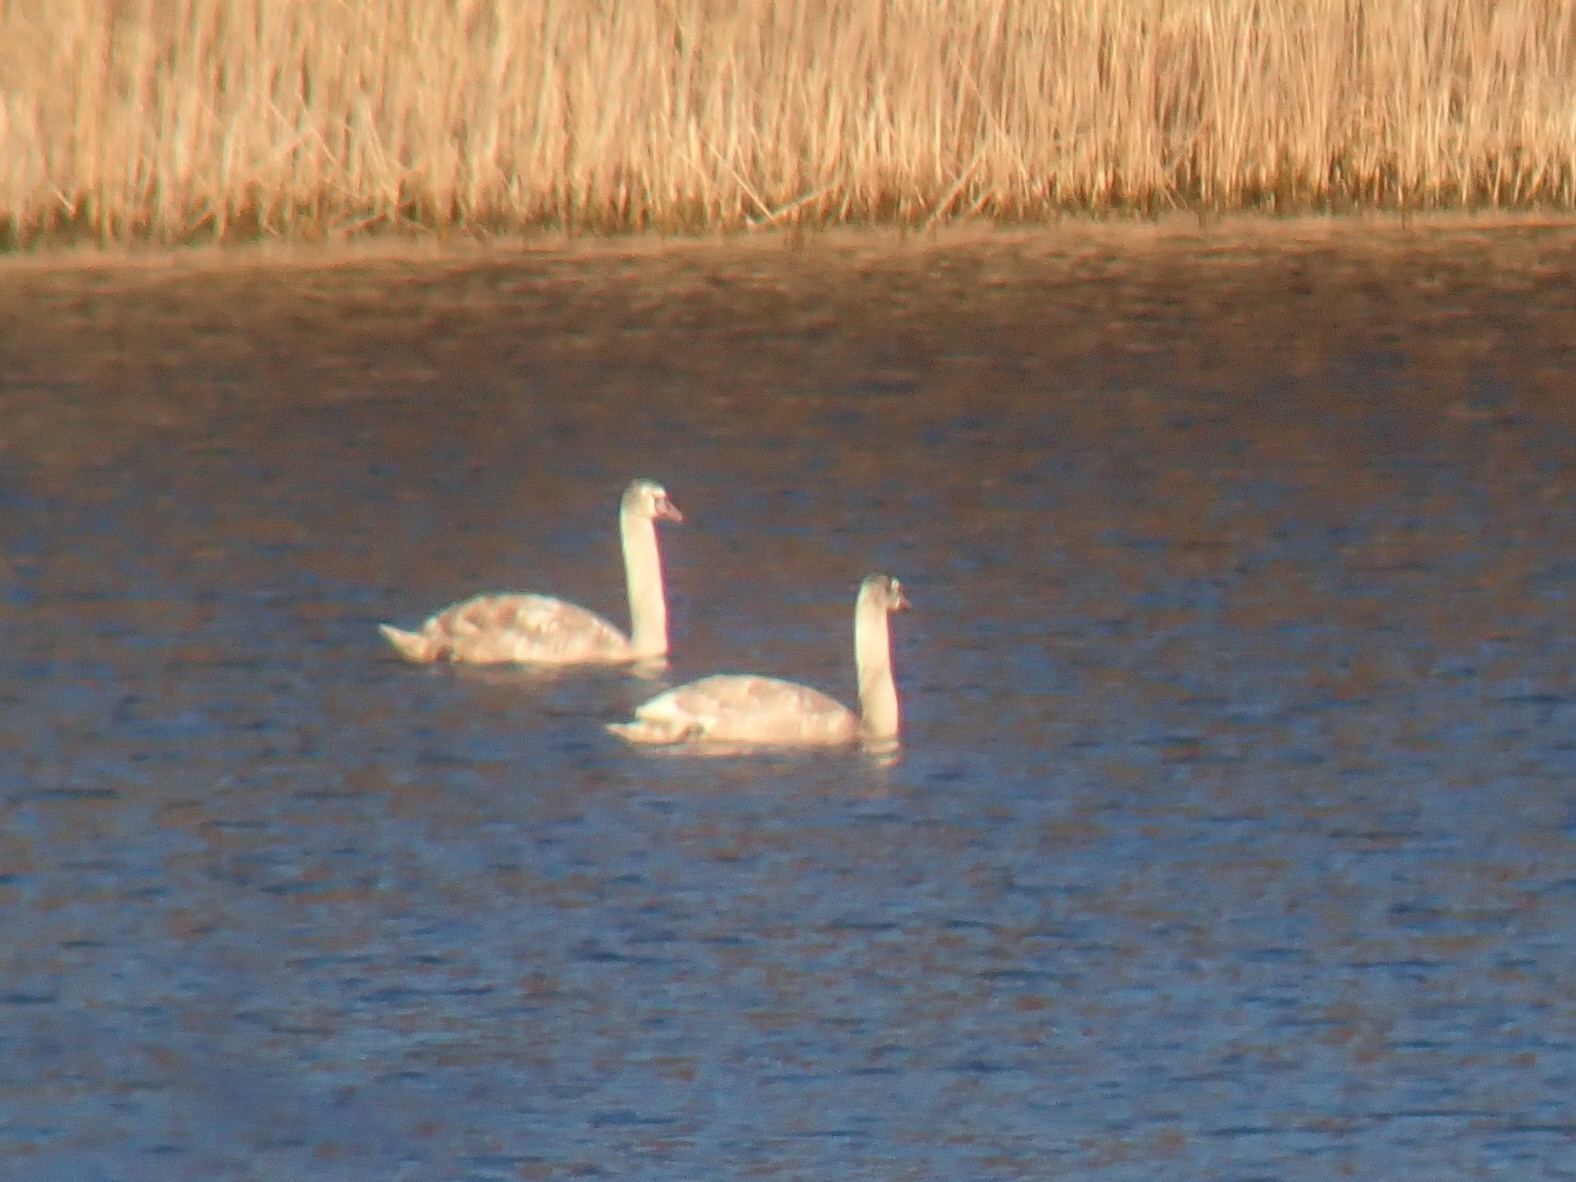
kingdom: Animalia
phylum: Chordata
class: Aves
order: Anseriformes
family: Anatidae
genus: Cygnus
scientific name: Cygnus olor
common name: Mute swan
